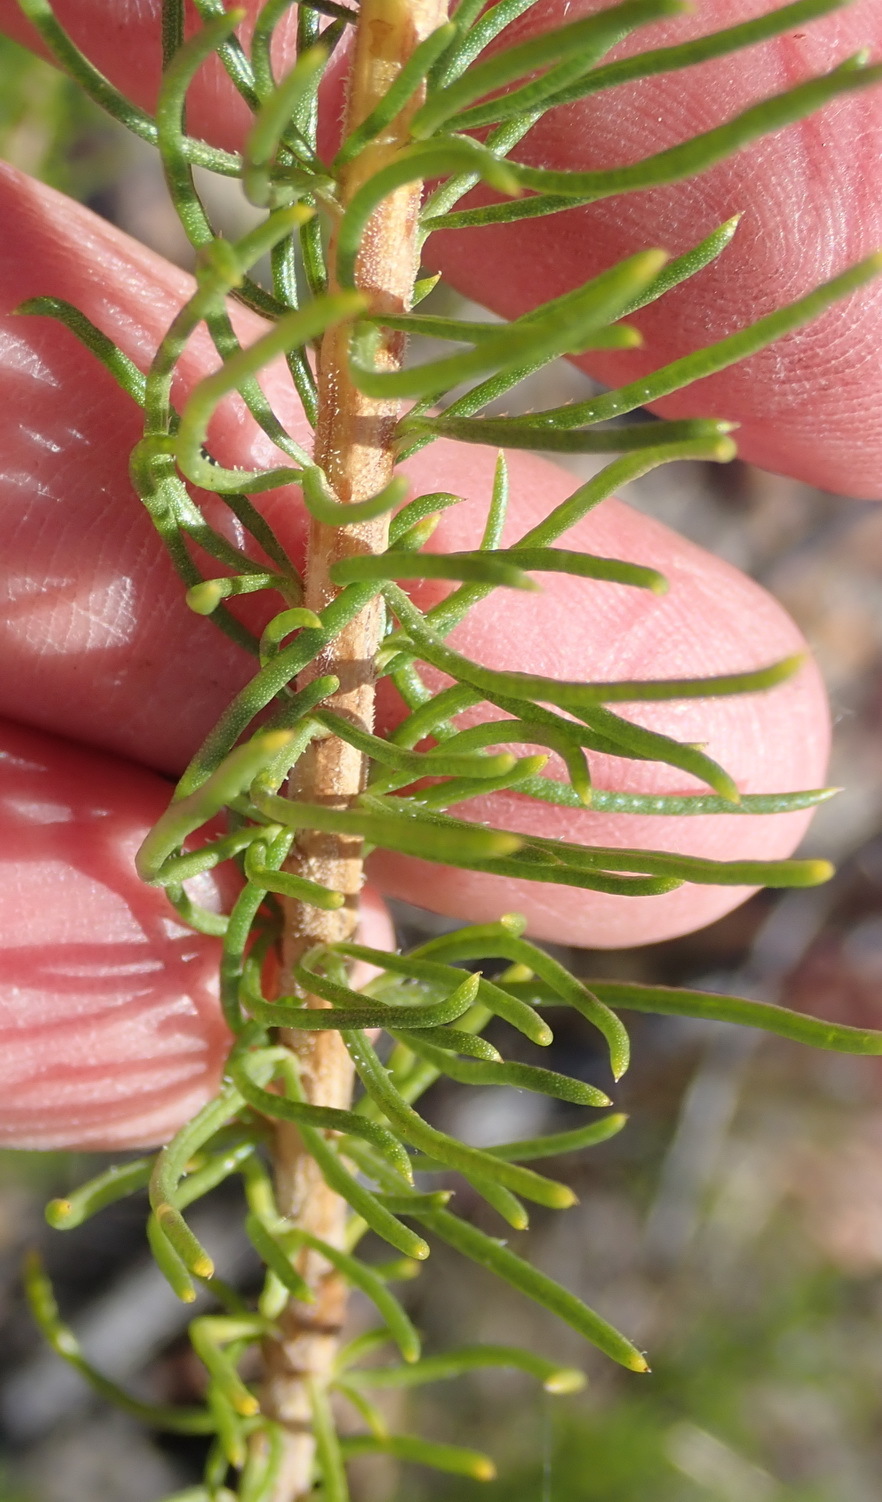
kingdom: Plantae
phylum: Tracheophyta
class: Magnoliopsida
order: Asterales
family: Asteraceae
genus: Pteronia
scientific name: Pteronia camphorata
